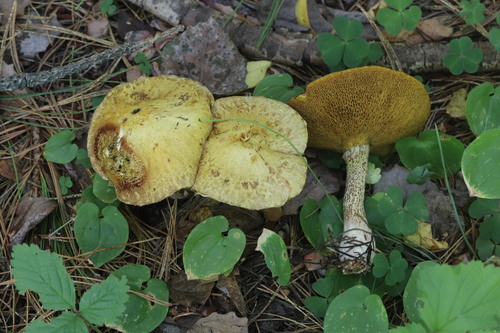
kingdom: Fungi
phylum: Basidiomycota
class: Agaricomycetes
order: Boletales
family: Suillaceae
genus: Suillus
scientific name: Suillus americanus
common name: Chicken fat mushroom
